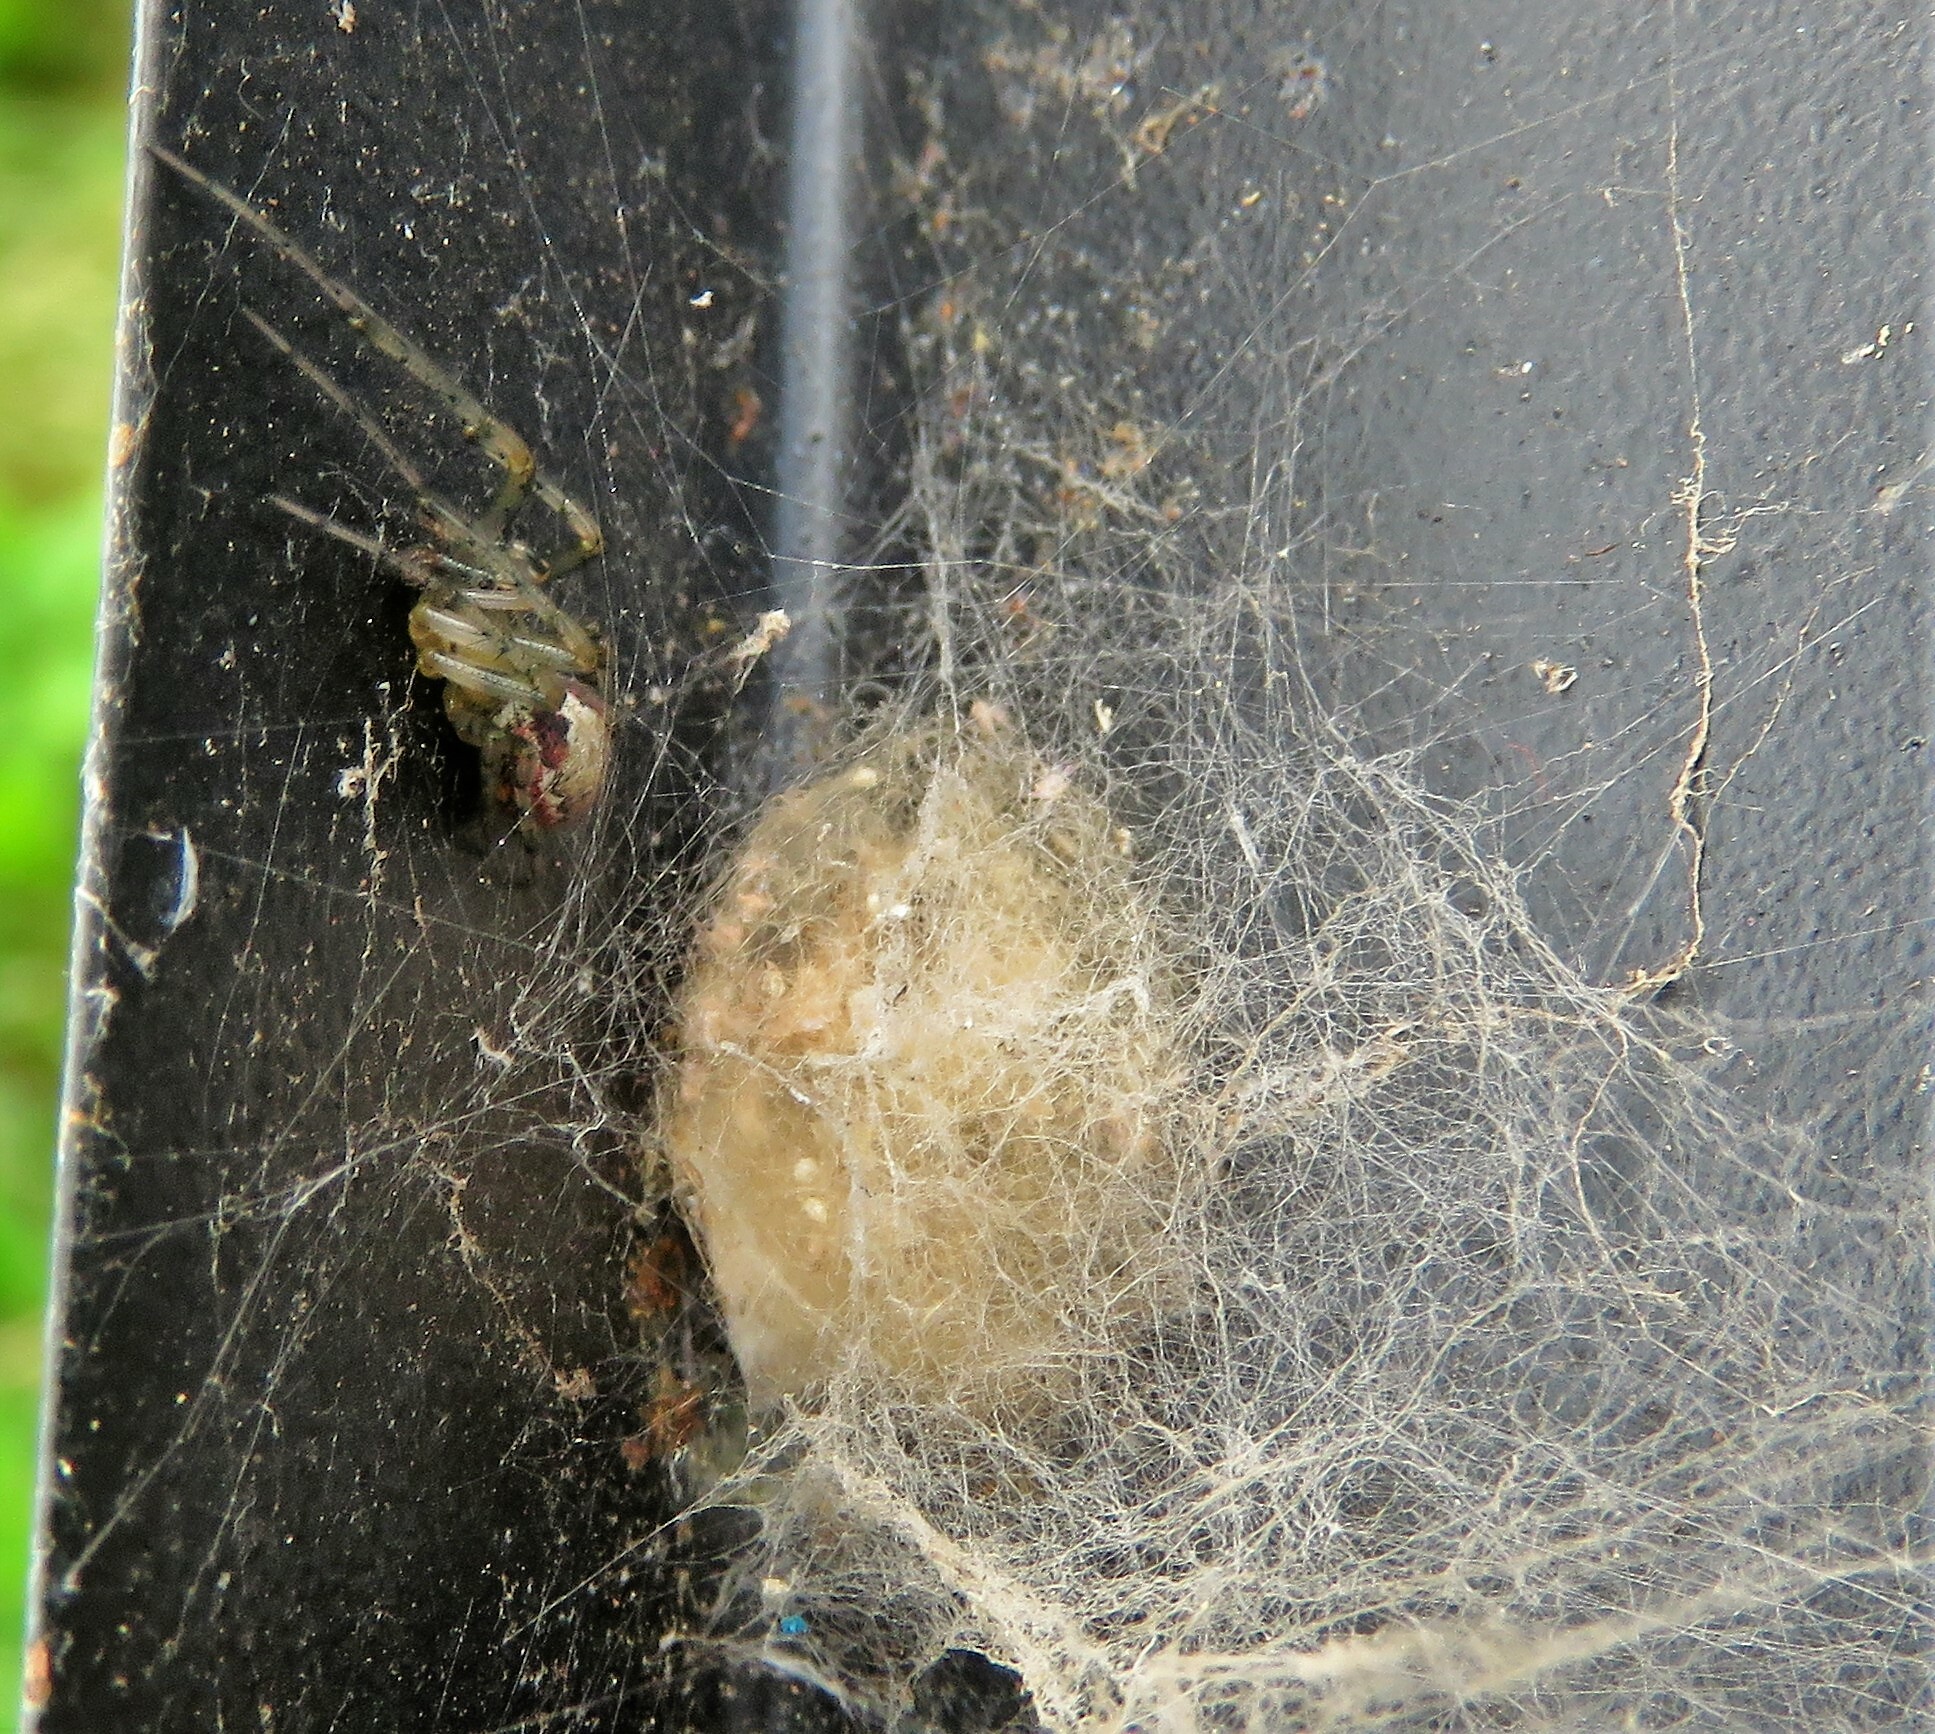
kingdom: Animalia
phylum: Arthropoda
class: Arachnida
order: Araneae
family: Araneidae
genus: Zygiella
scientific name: Zygiella atrica
